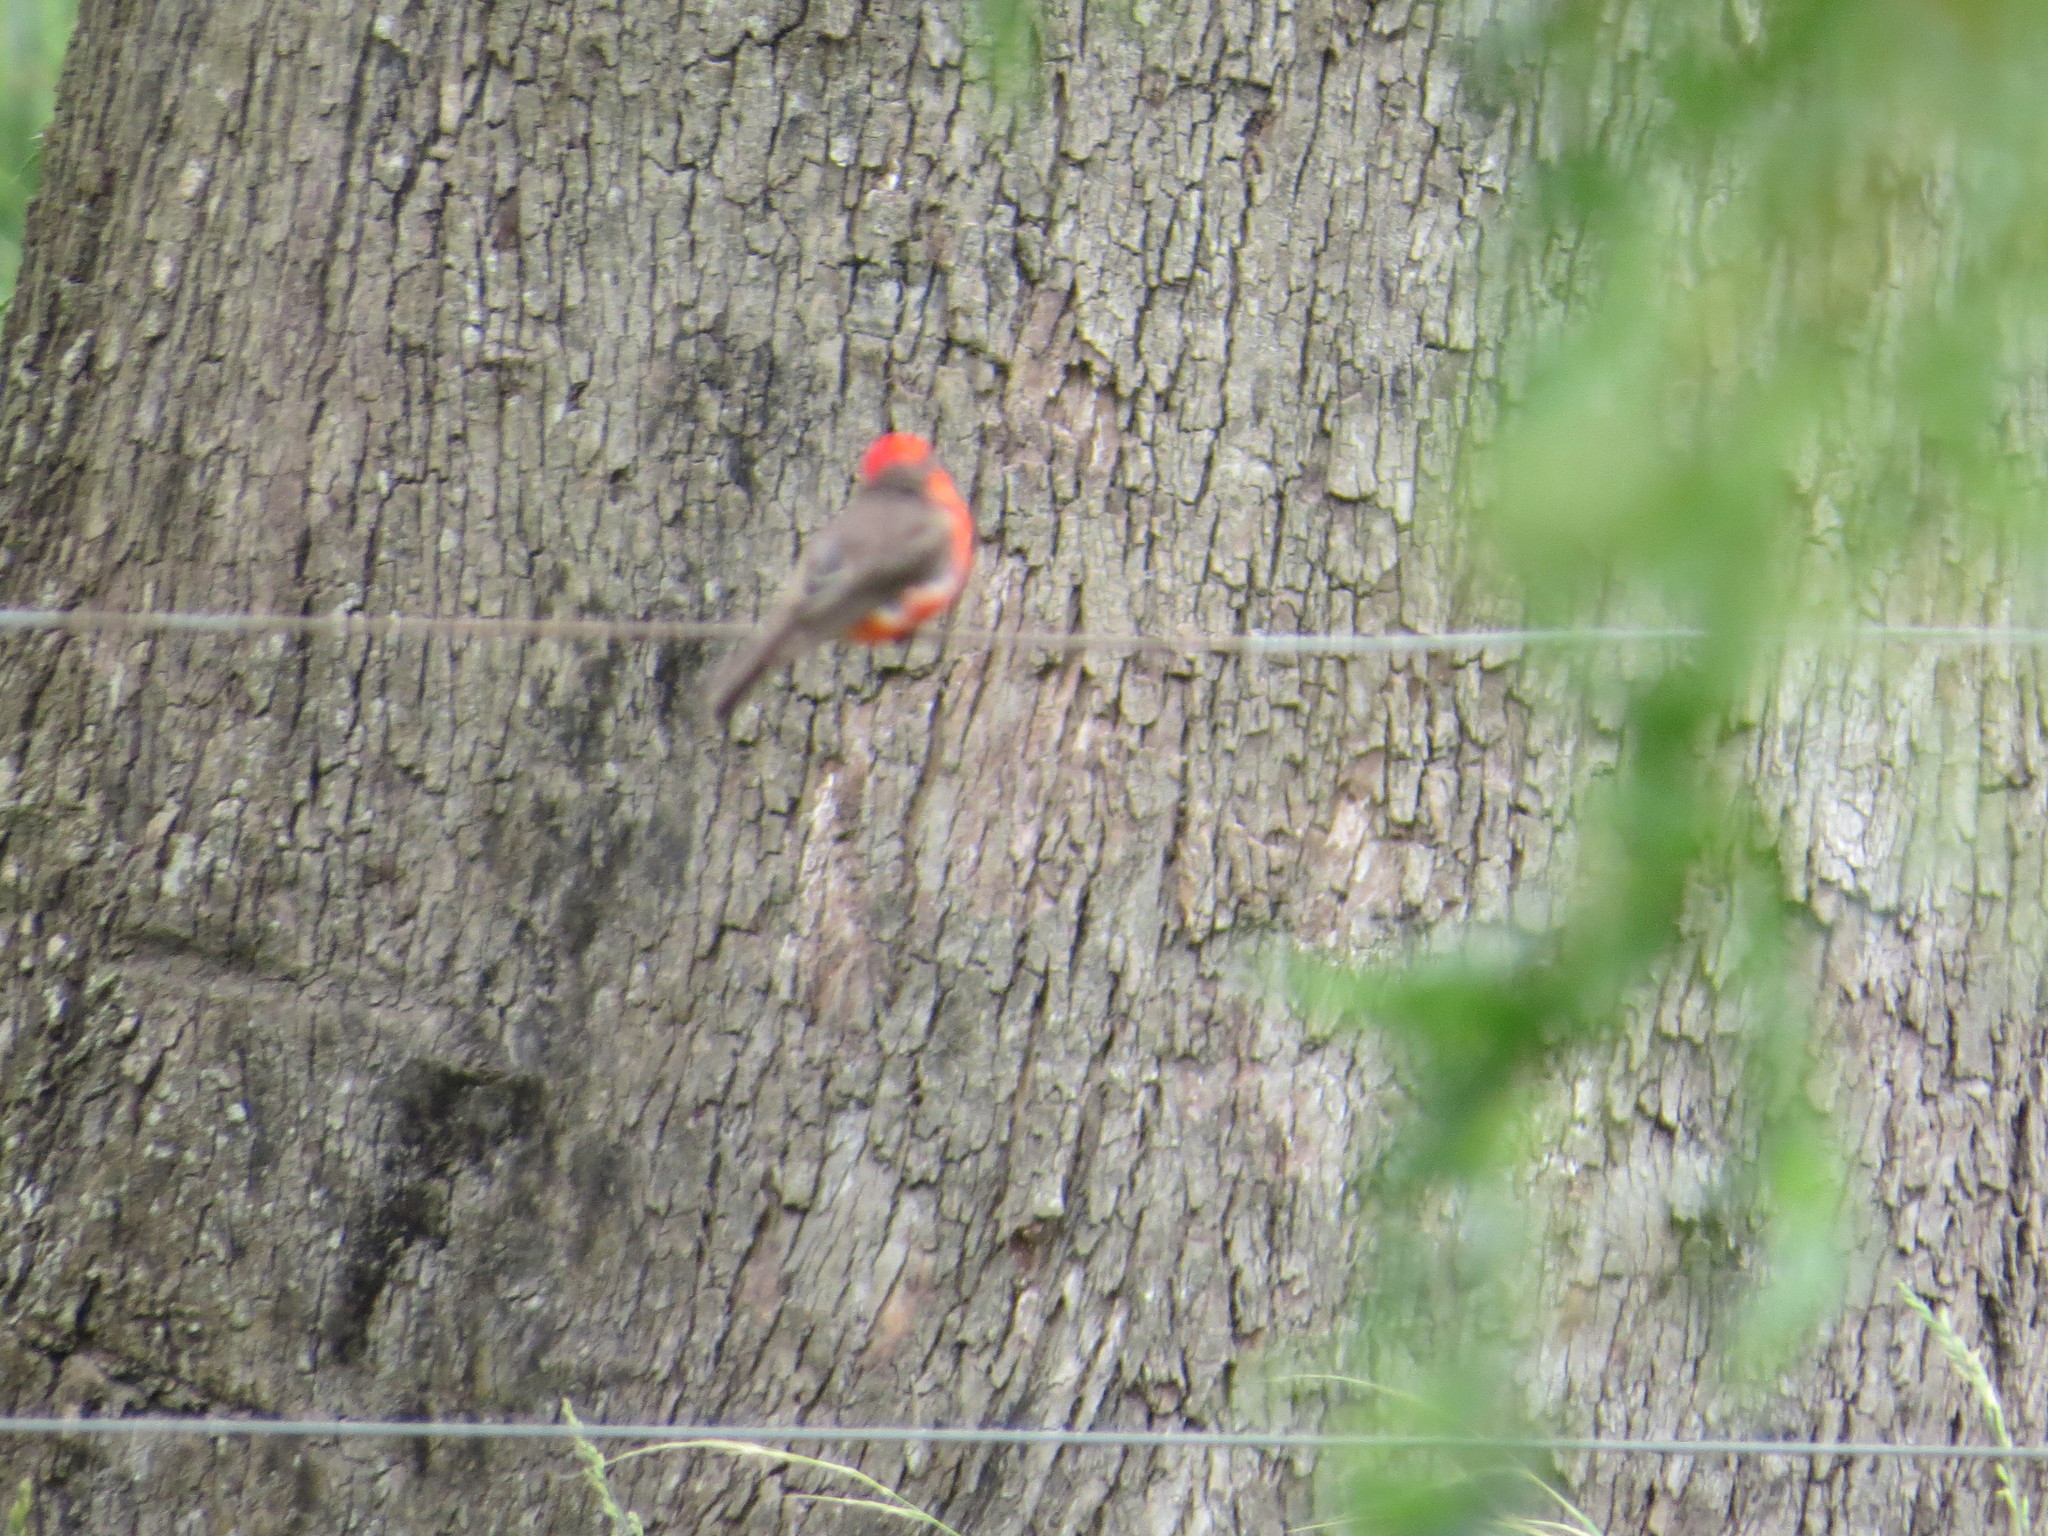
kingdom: Animalia
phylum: Chordata
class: Aves
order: Passeriformes
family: Tyrannidae
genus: Pyrocephalus
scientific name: Pyrocephalus rubinus
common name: Vermilion flycatcher
